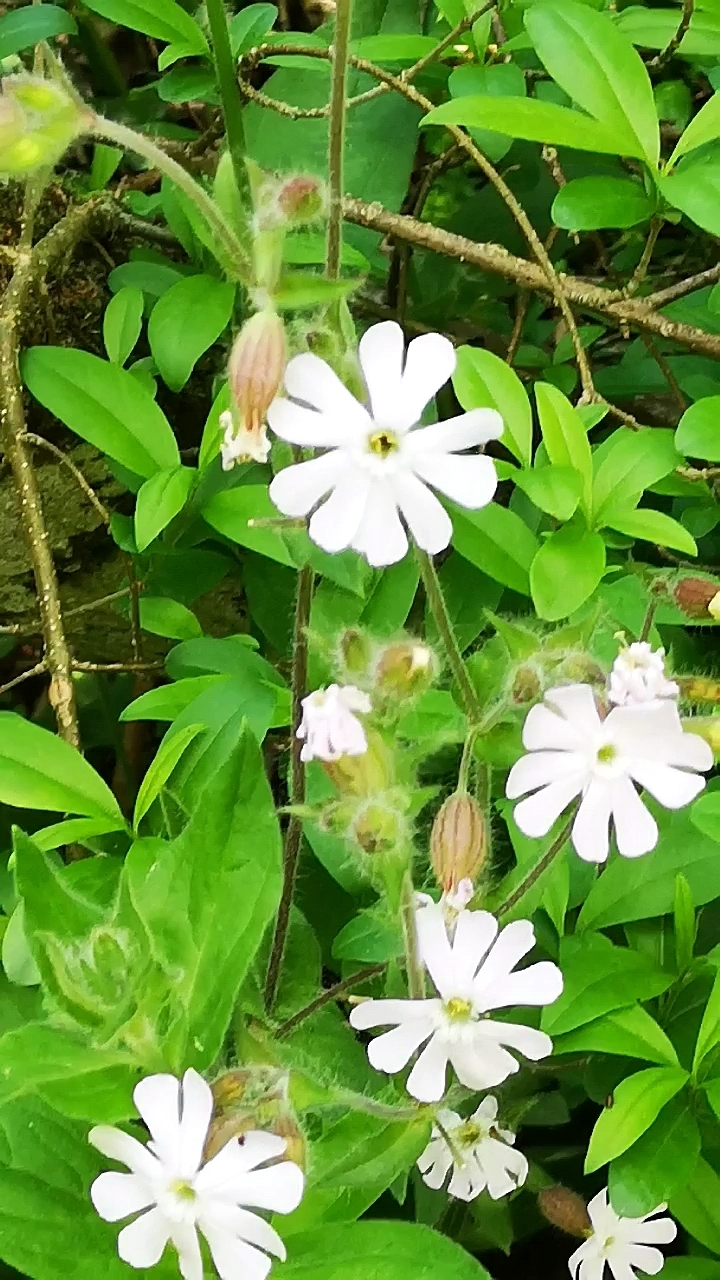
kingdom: Plantae
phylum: Tracheophyta
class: Magnoliopsida
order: Caryophyllales
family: Caryophyllaceae
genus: Silene
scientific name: Silene latifolia
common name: White campion
